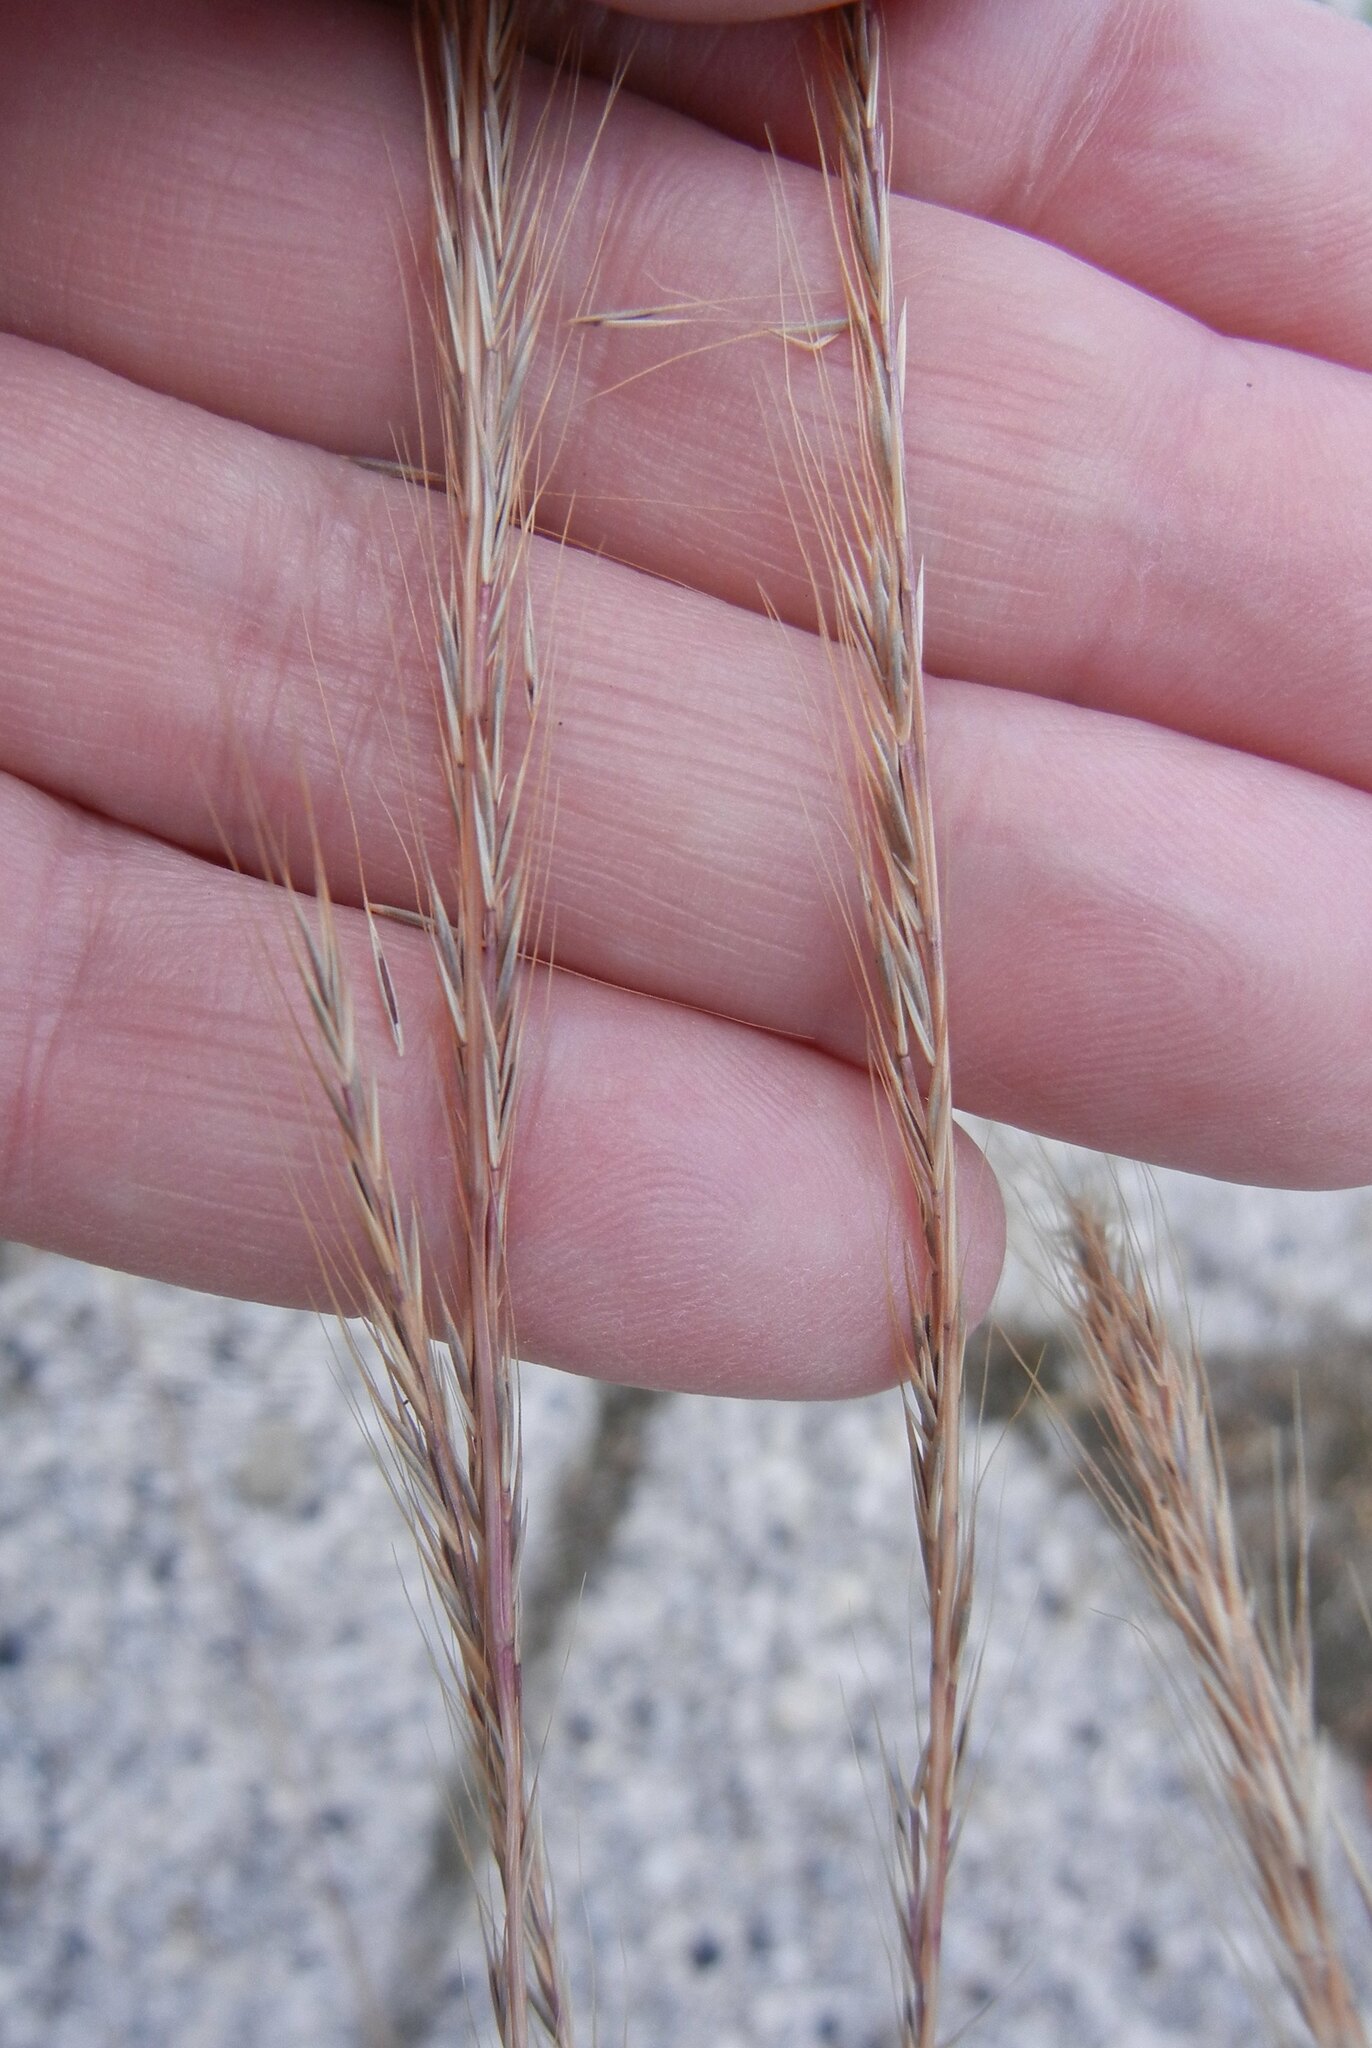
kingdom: Plantae
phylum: Tracheophyta
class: Liliopsida
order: Poales
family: Poaceae
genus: Festuca
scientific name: Festuca myuros
